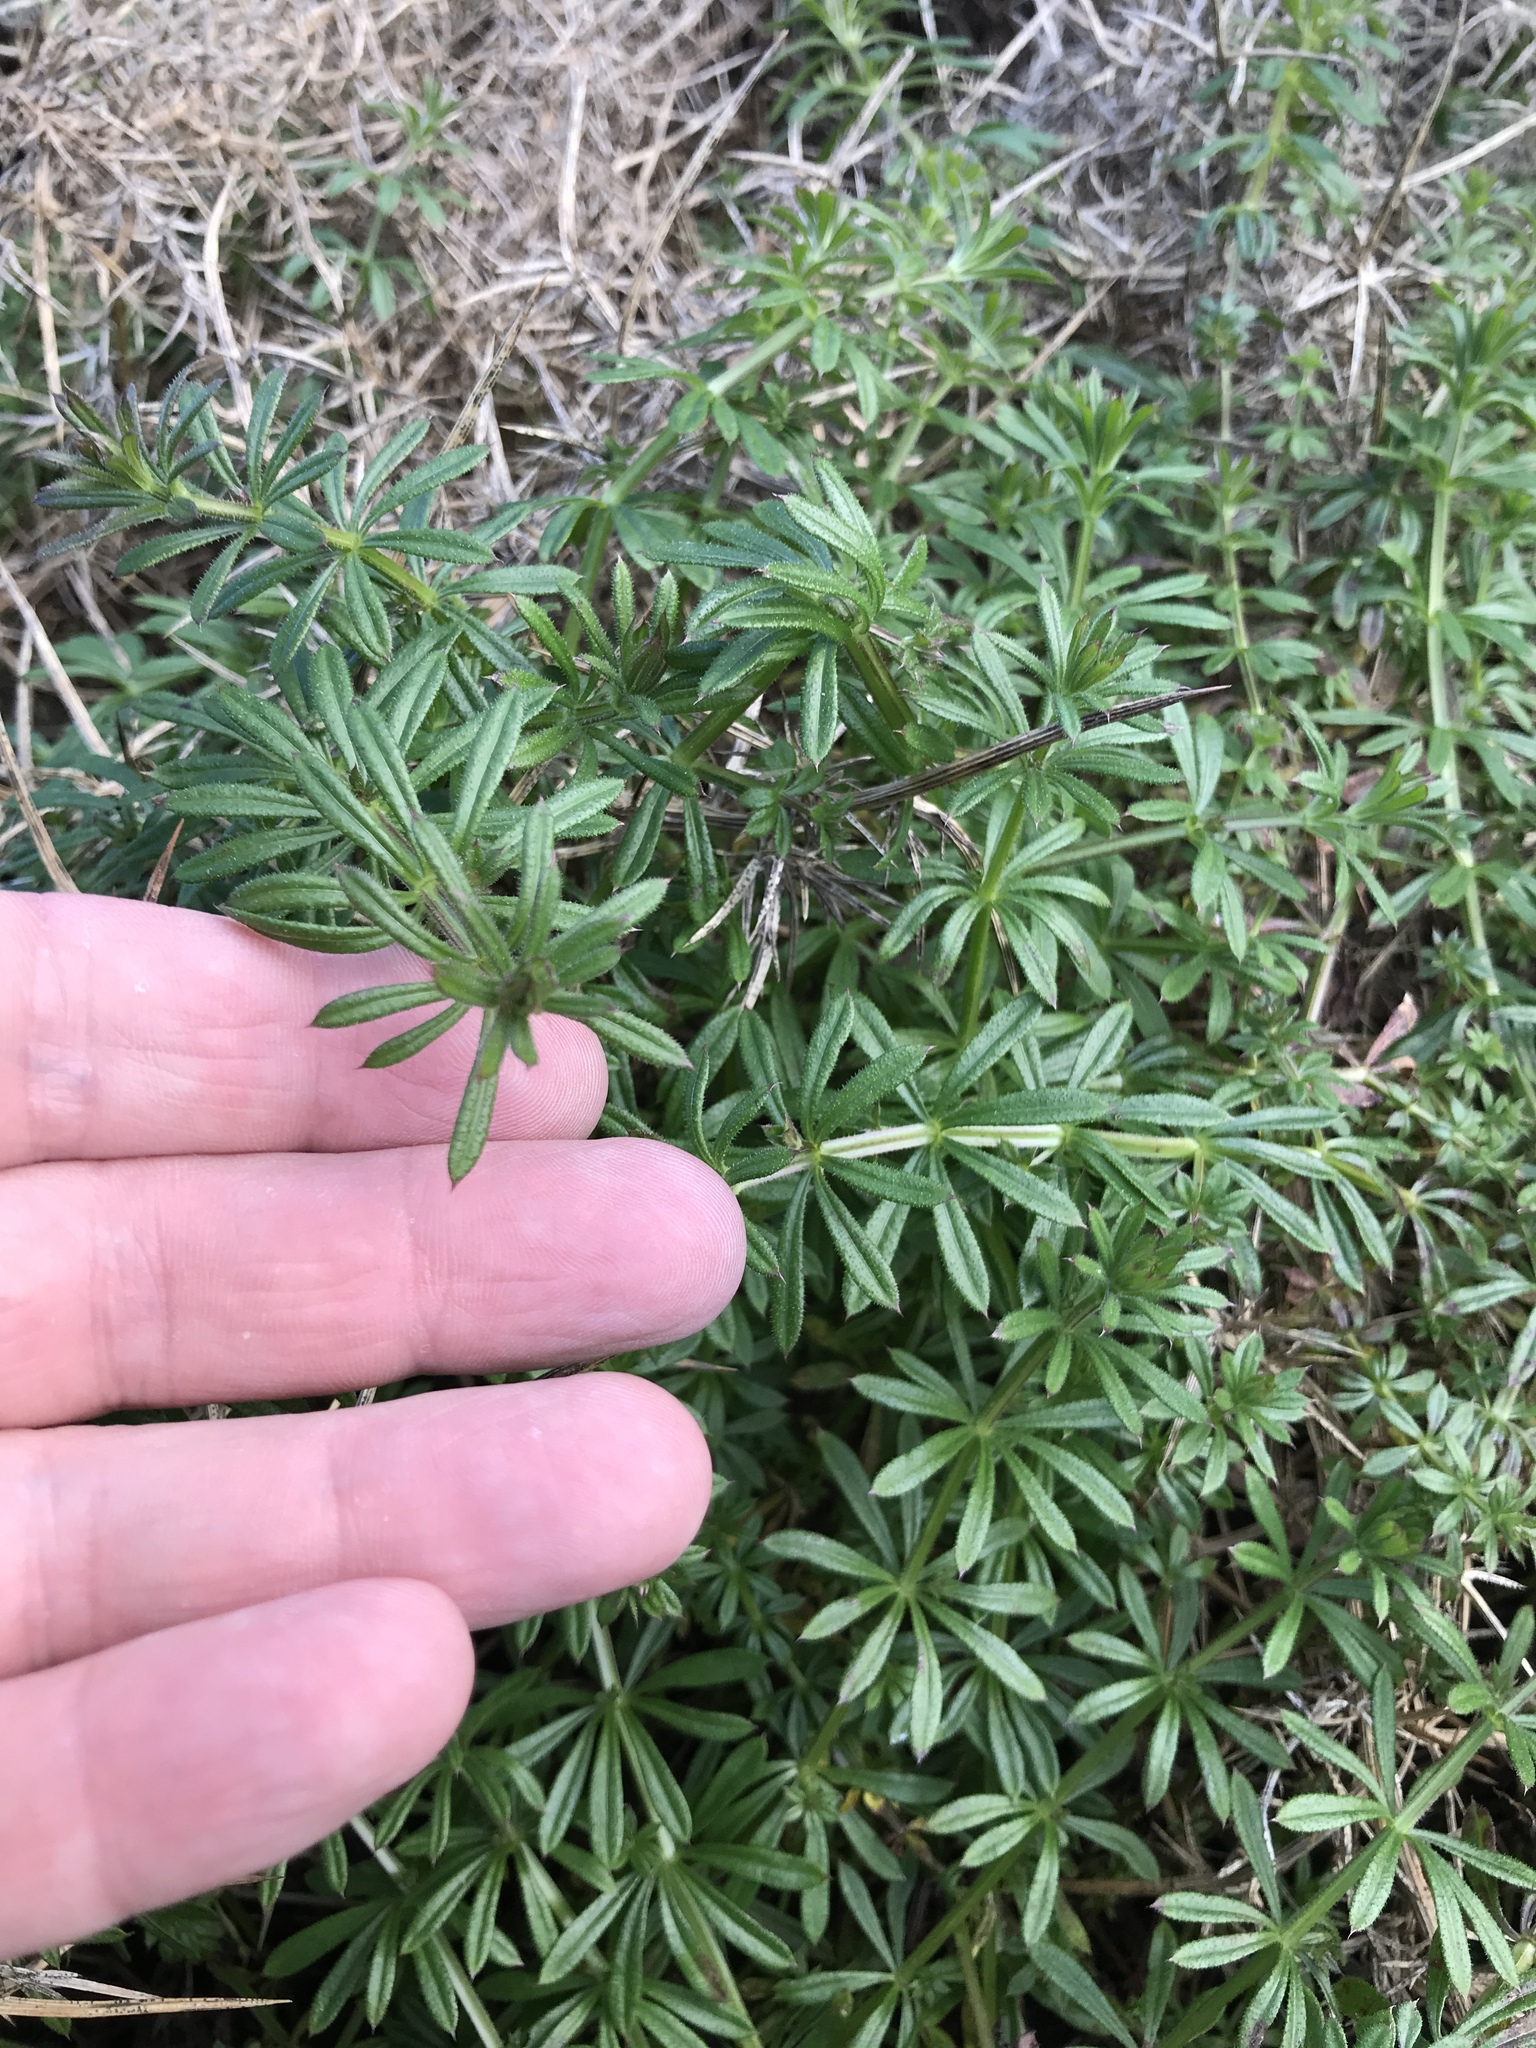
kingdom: Plantae
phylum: Tracheophyta
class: Magnoliopsida
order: Gentianales
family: Rubiaceae
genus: Galium
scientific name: Galium aparine
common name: Cleavers
